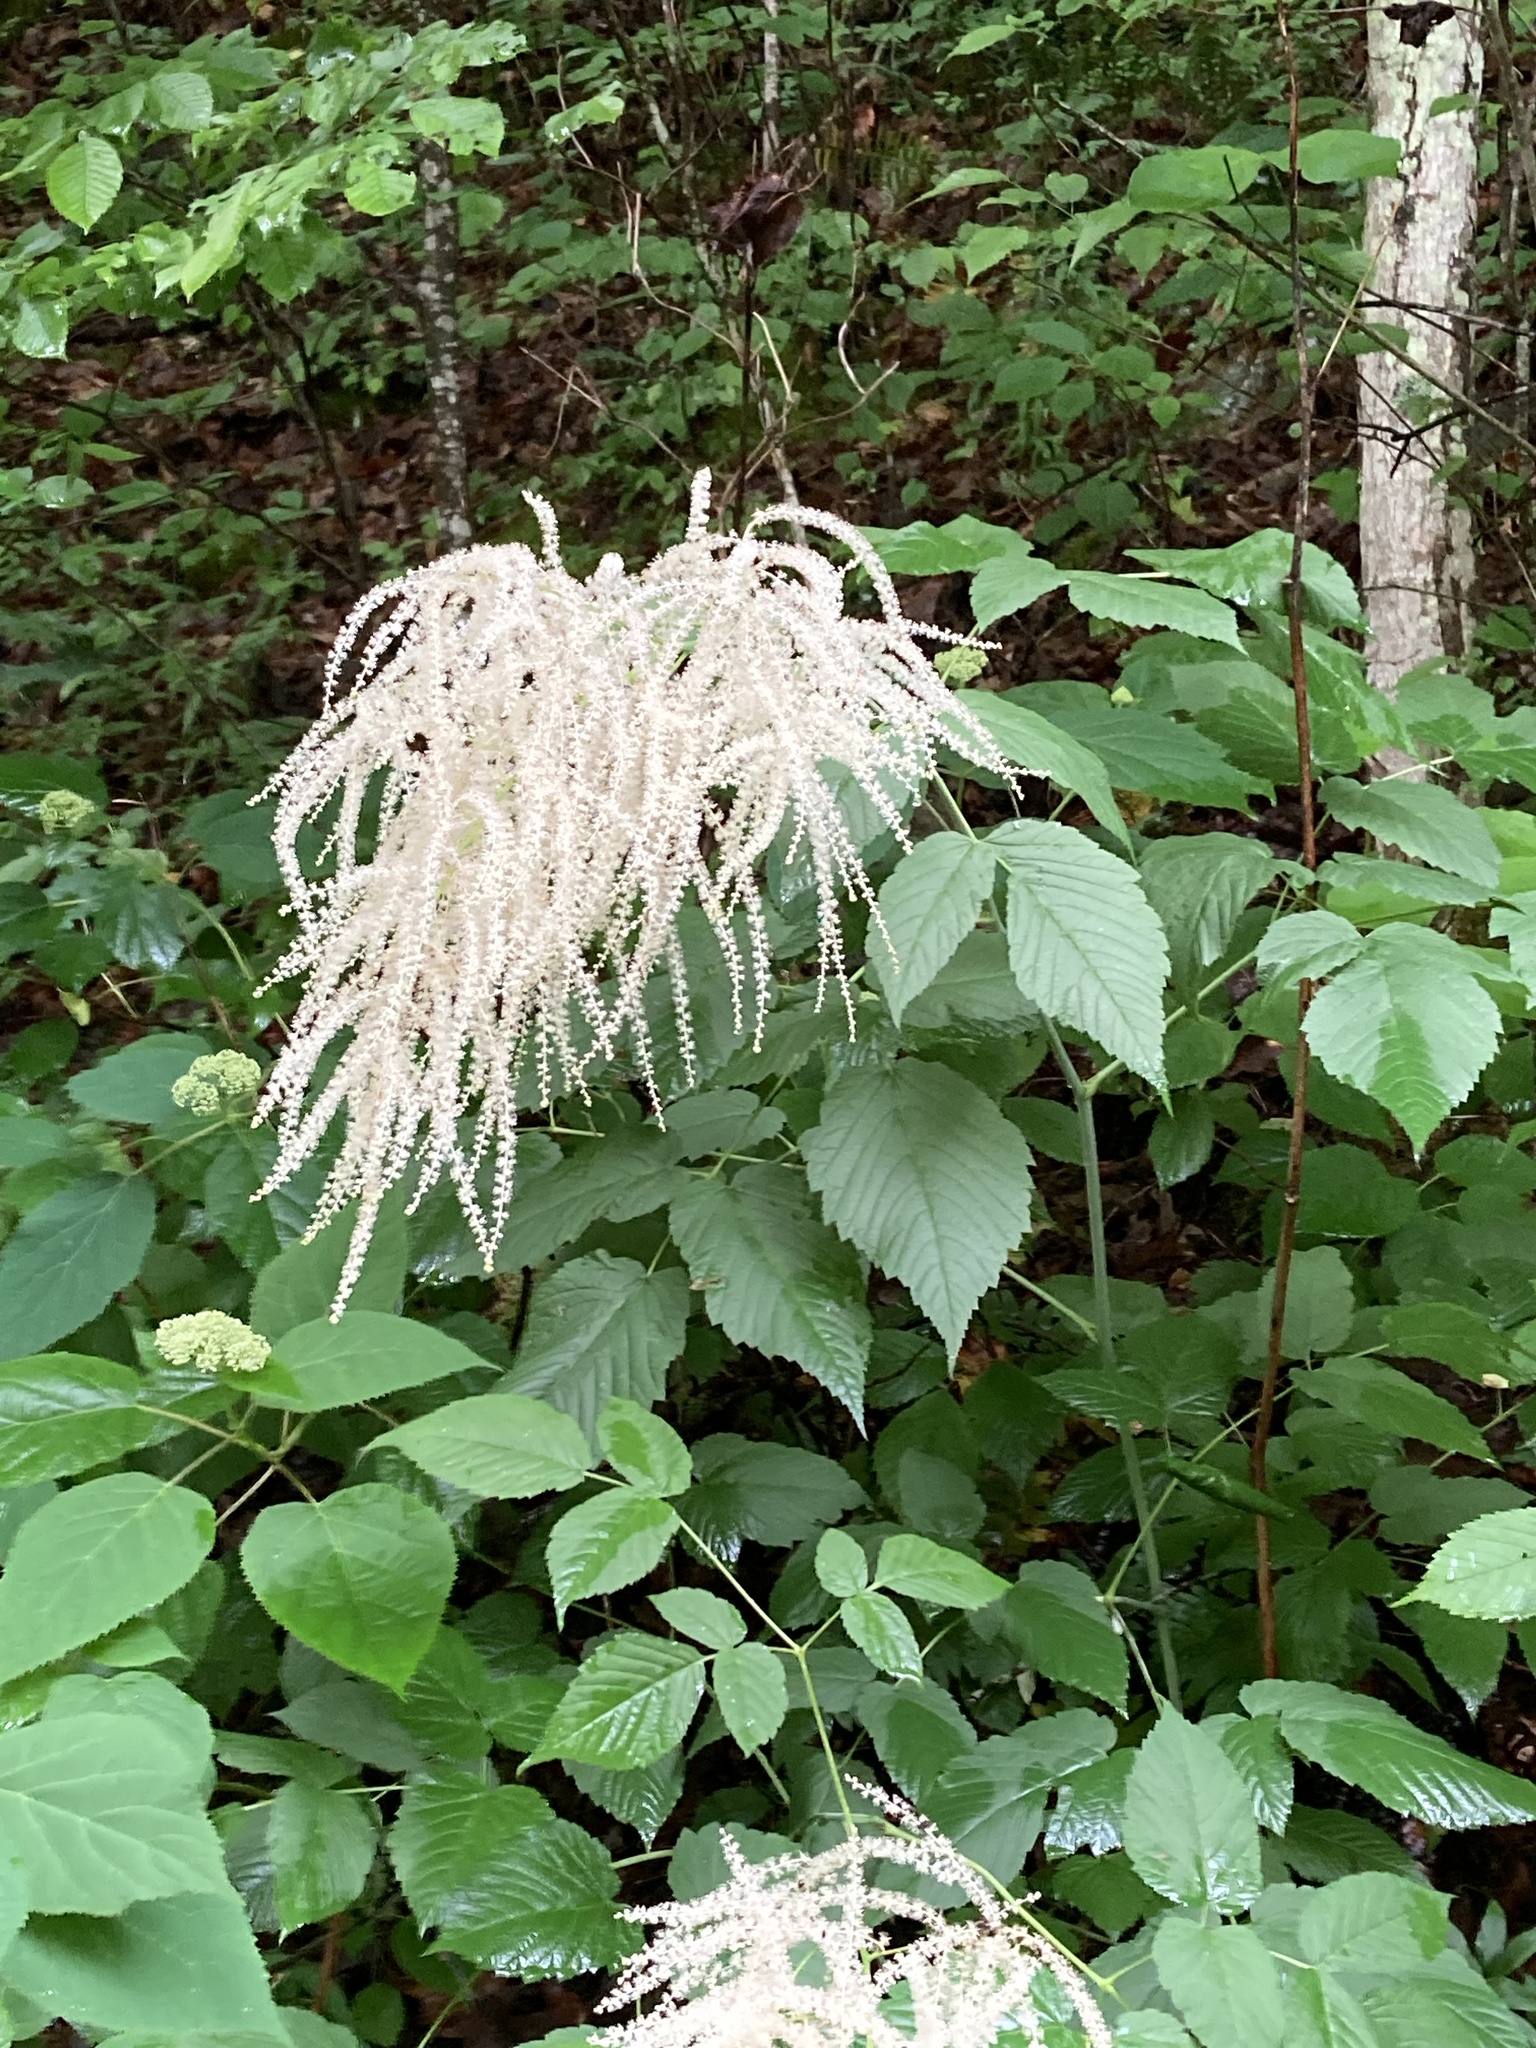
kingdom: Plantae
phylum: Tracheophyta
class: Magnoliopsida
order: Rosales
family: Rosaceae
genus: Aruncus
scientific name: Aruncus dioicus
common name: Buck's-beard
